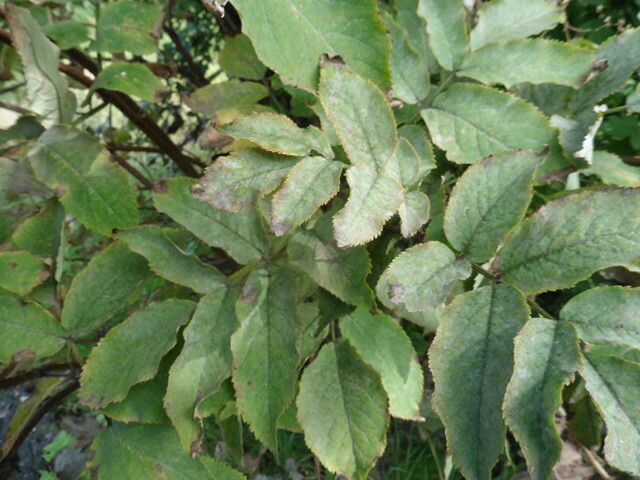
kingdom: Plantae
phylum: Tracheophyta
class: Magnoliopsida
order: Dipsacales
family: Viburnaceae
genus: Sambucus
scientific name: Sambucus racemosa
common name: Red-berried elder
